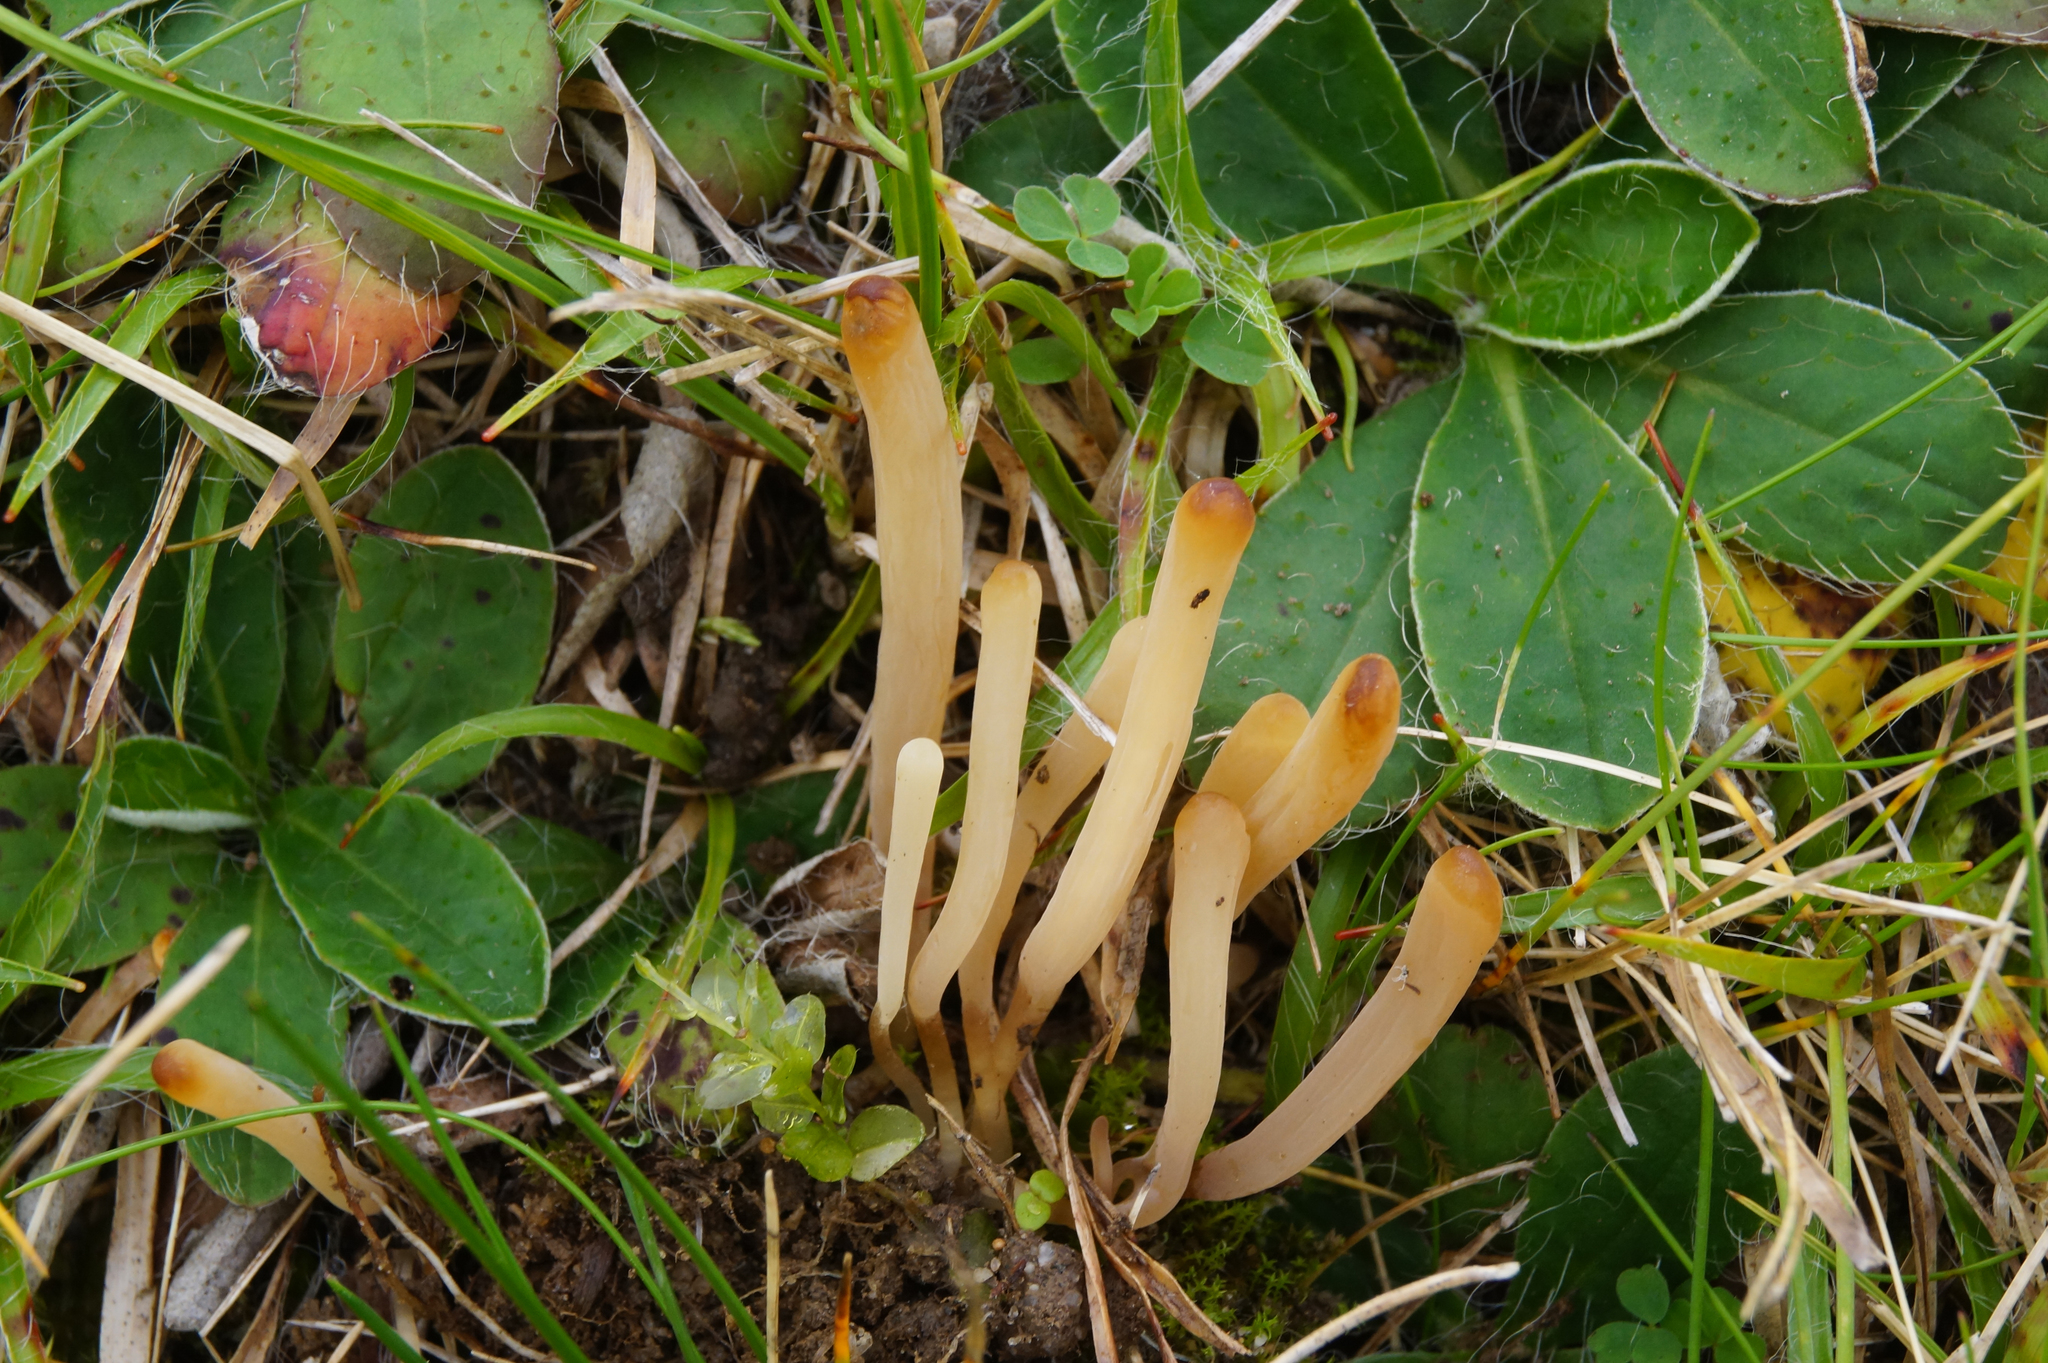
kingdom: Fungi
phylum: Basidiomycota
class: Agaricomycetes
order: Agaricales
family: Clavariaceae
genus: Clavaria
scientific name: Clavaria krieglsteineri
